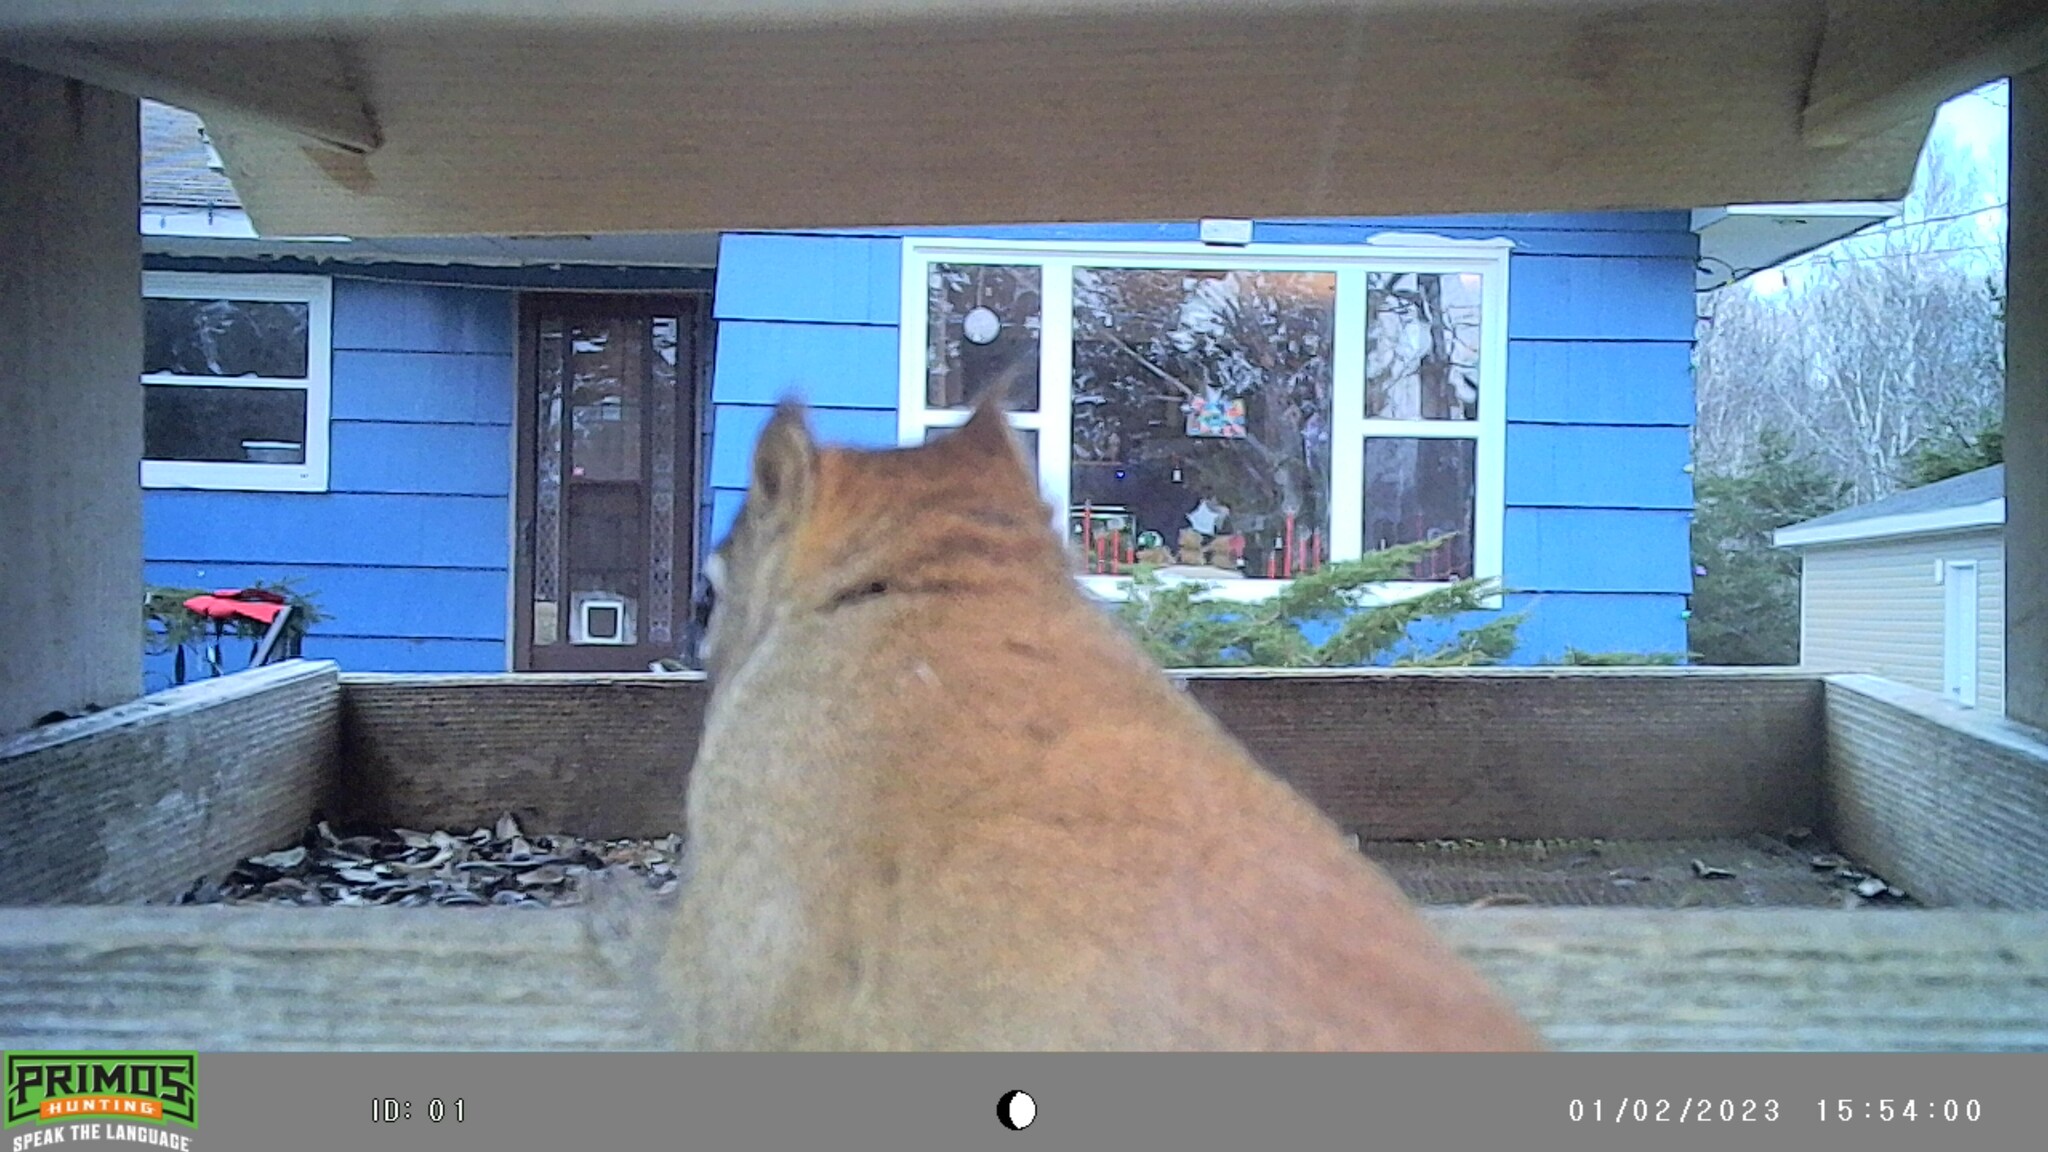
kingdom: Animalia
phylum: Chordata
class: Mammalia
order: Rodentia
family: Sciuridae
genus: Tamiasciurus
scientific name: Tamiasciurus hudsonicus
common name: Red squirrel
